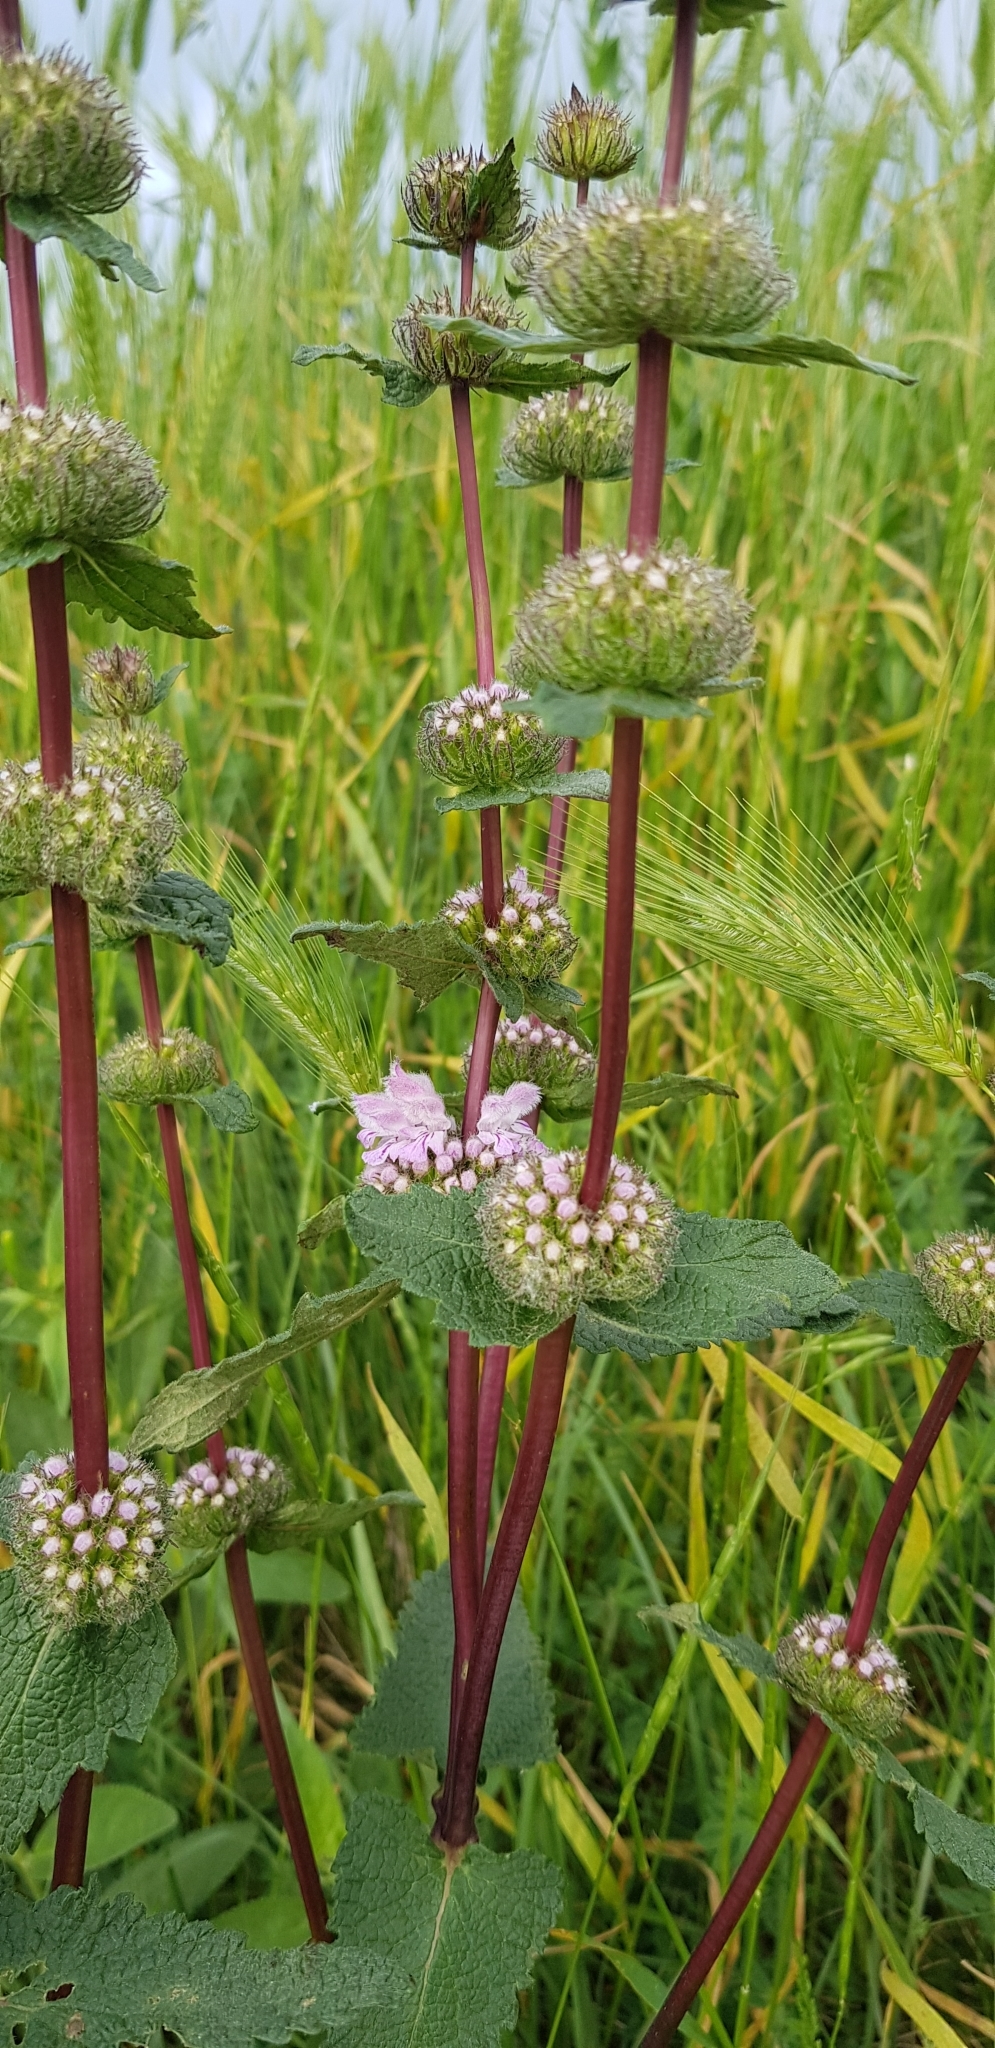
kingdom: Plantae
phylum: Tracheophyta
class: Magnoliopsida
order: Lamiales
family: Lamiaceae
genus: Phlomoides
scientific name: Phlomoides tuberosa
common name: Tuberous jerusalem sage
